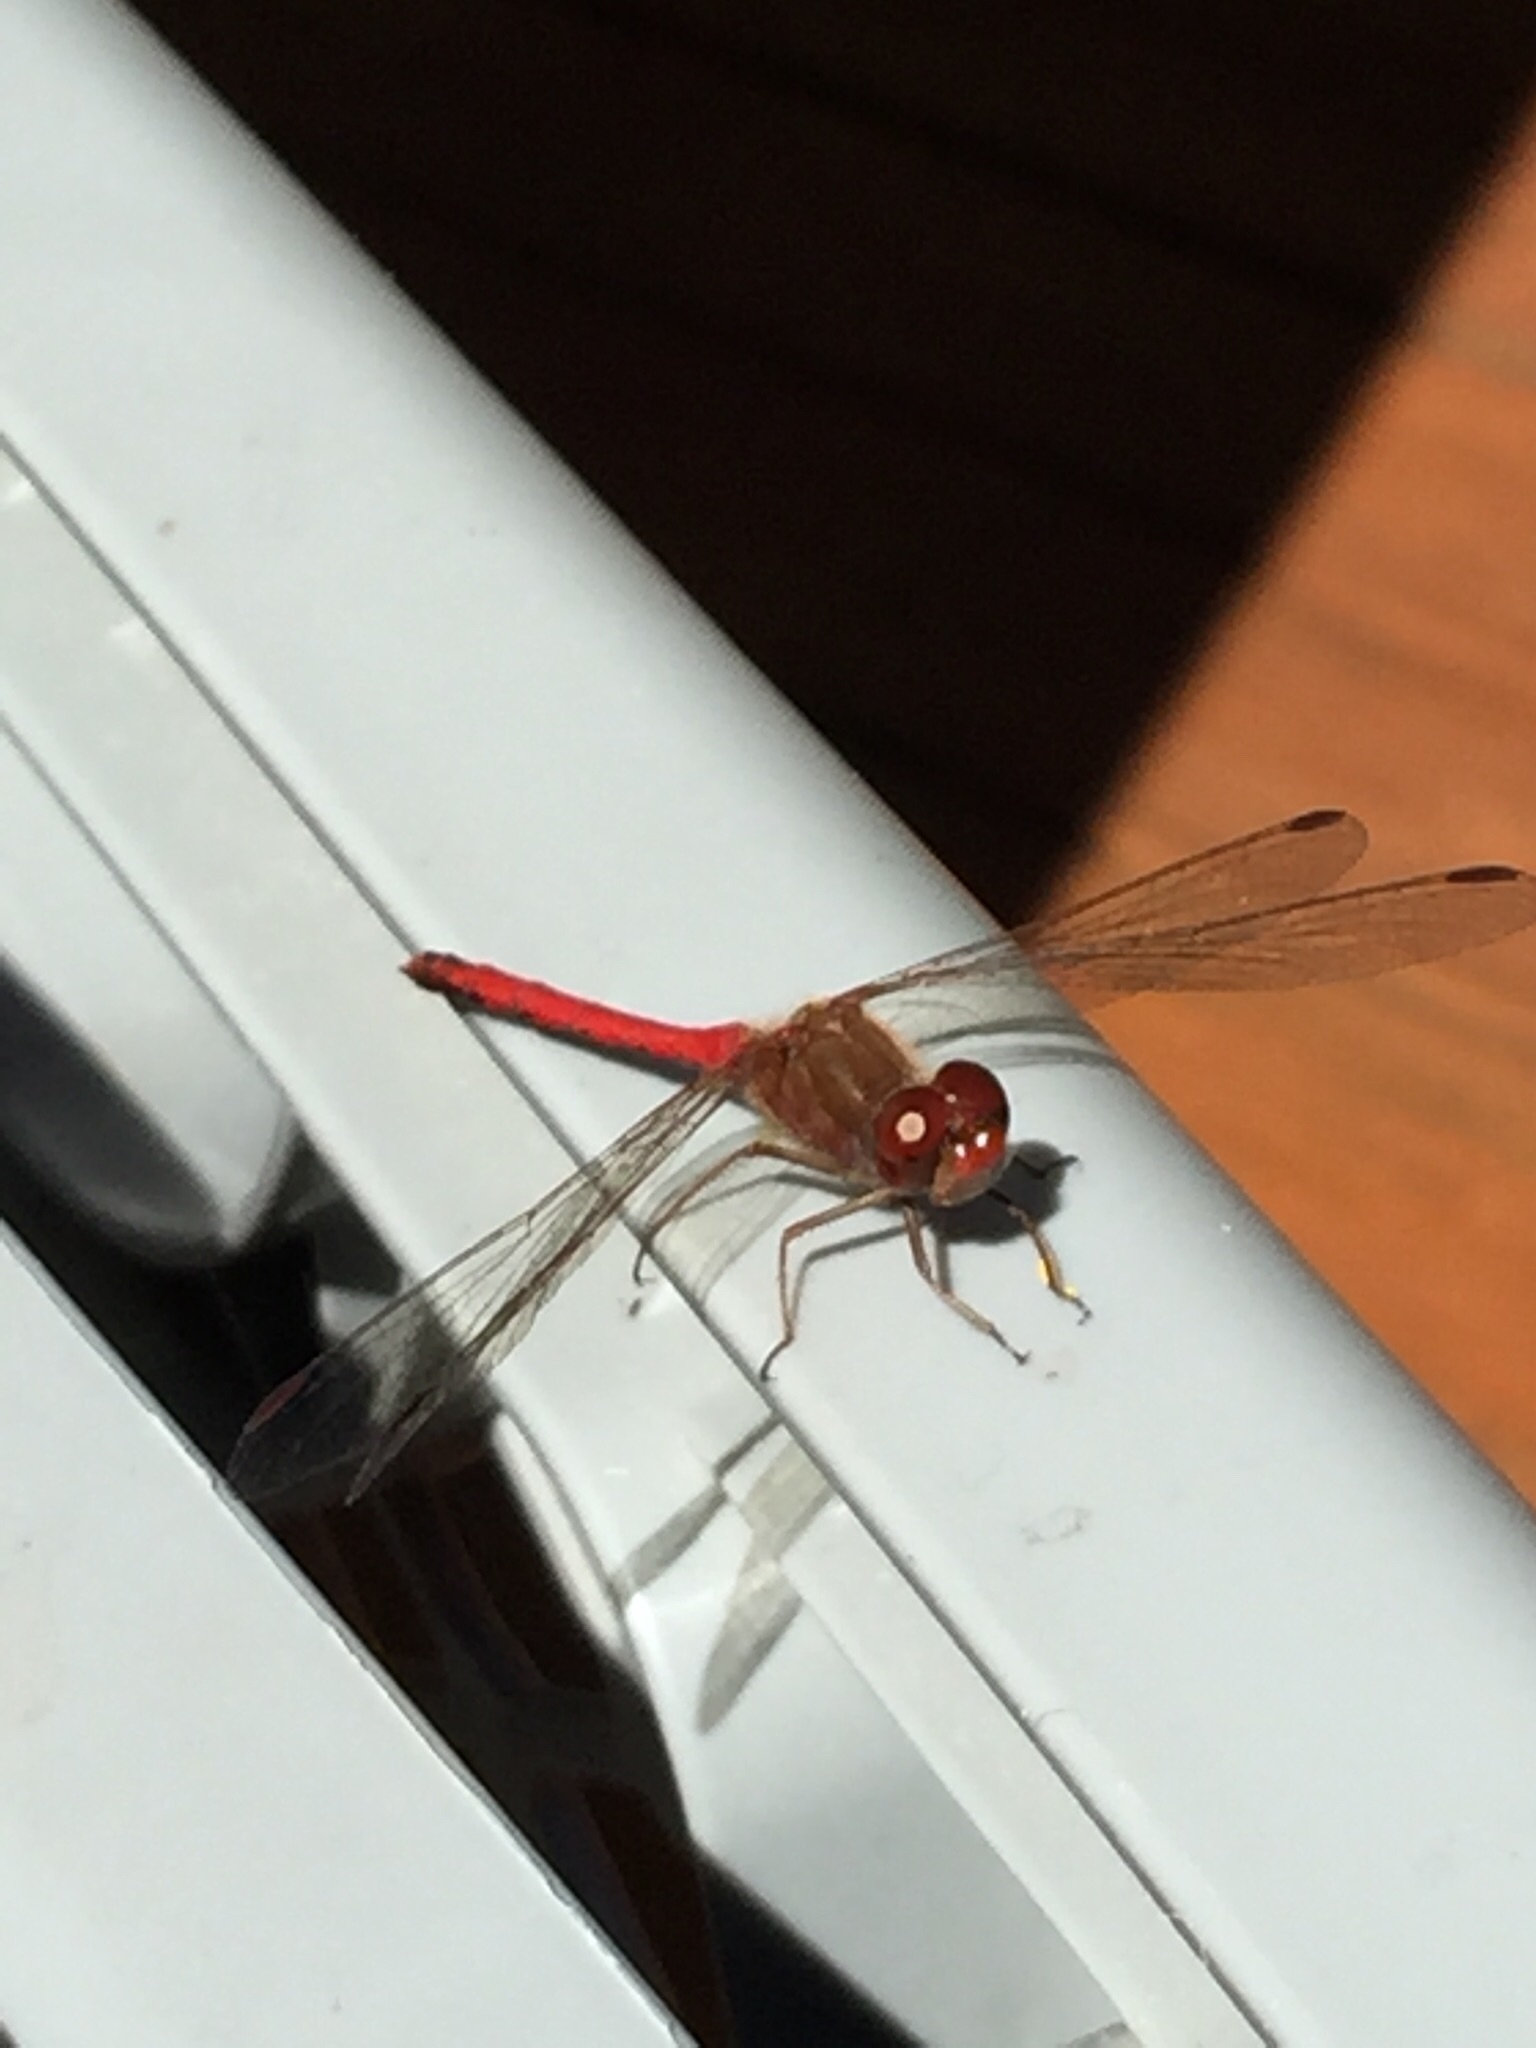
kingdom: Animalia
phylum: Arthropoda
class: Insecta
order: Odonata
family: Libellulidae
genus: Sympetrum
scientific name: Sympetrum vicinum
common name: Autumn meadowhawk
